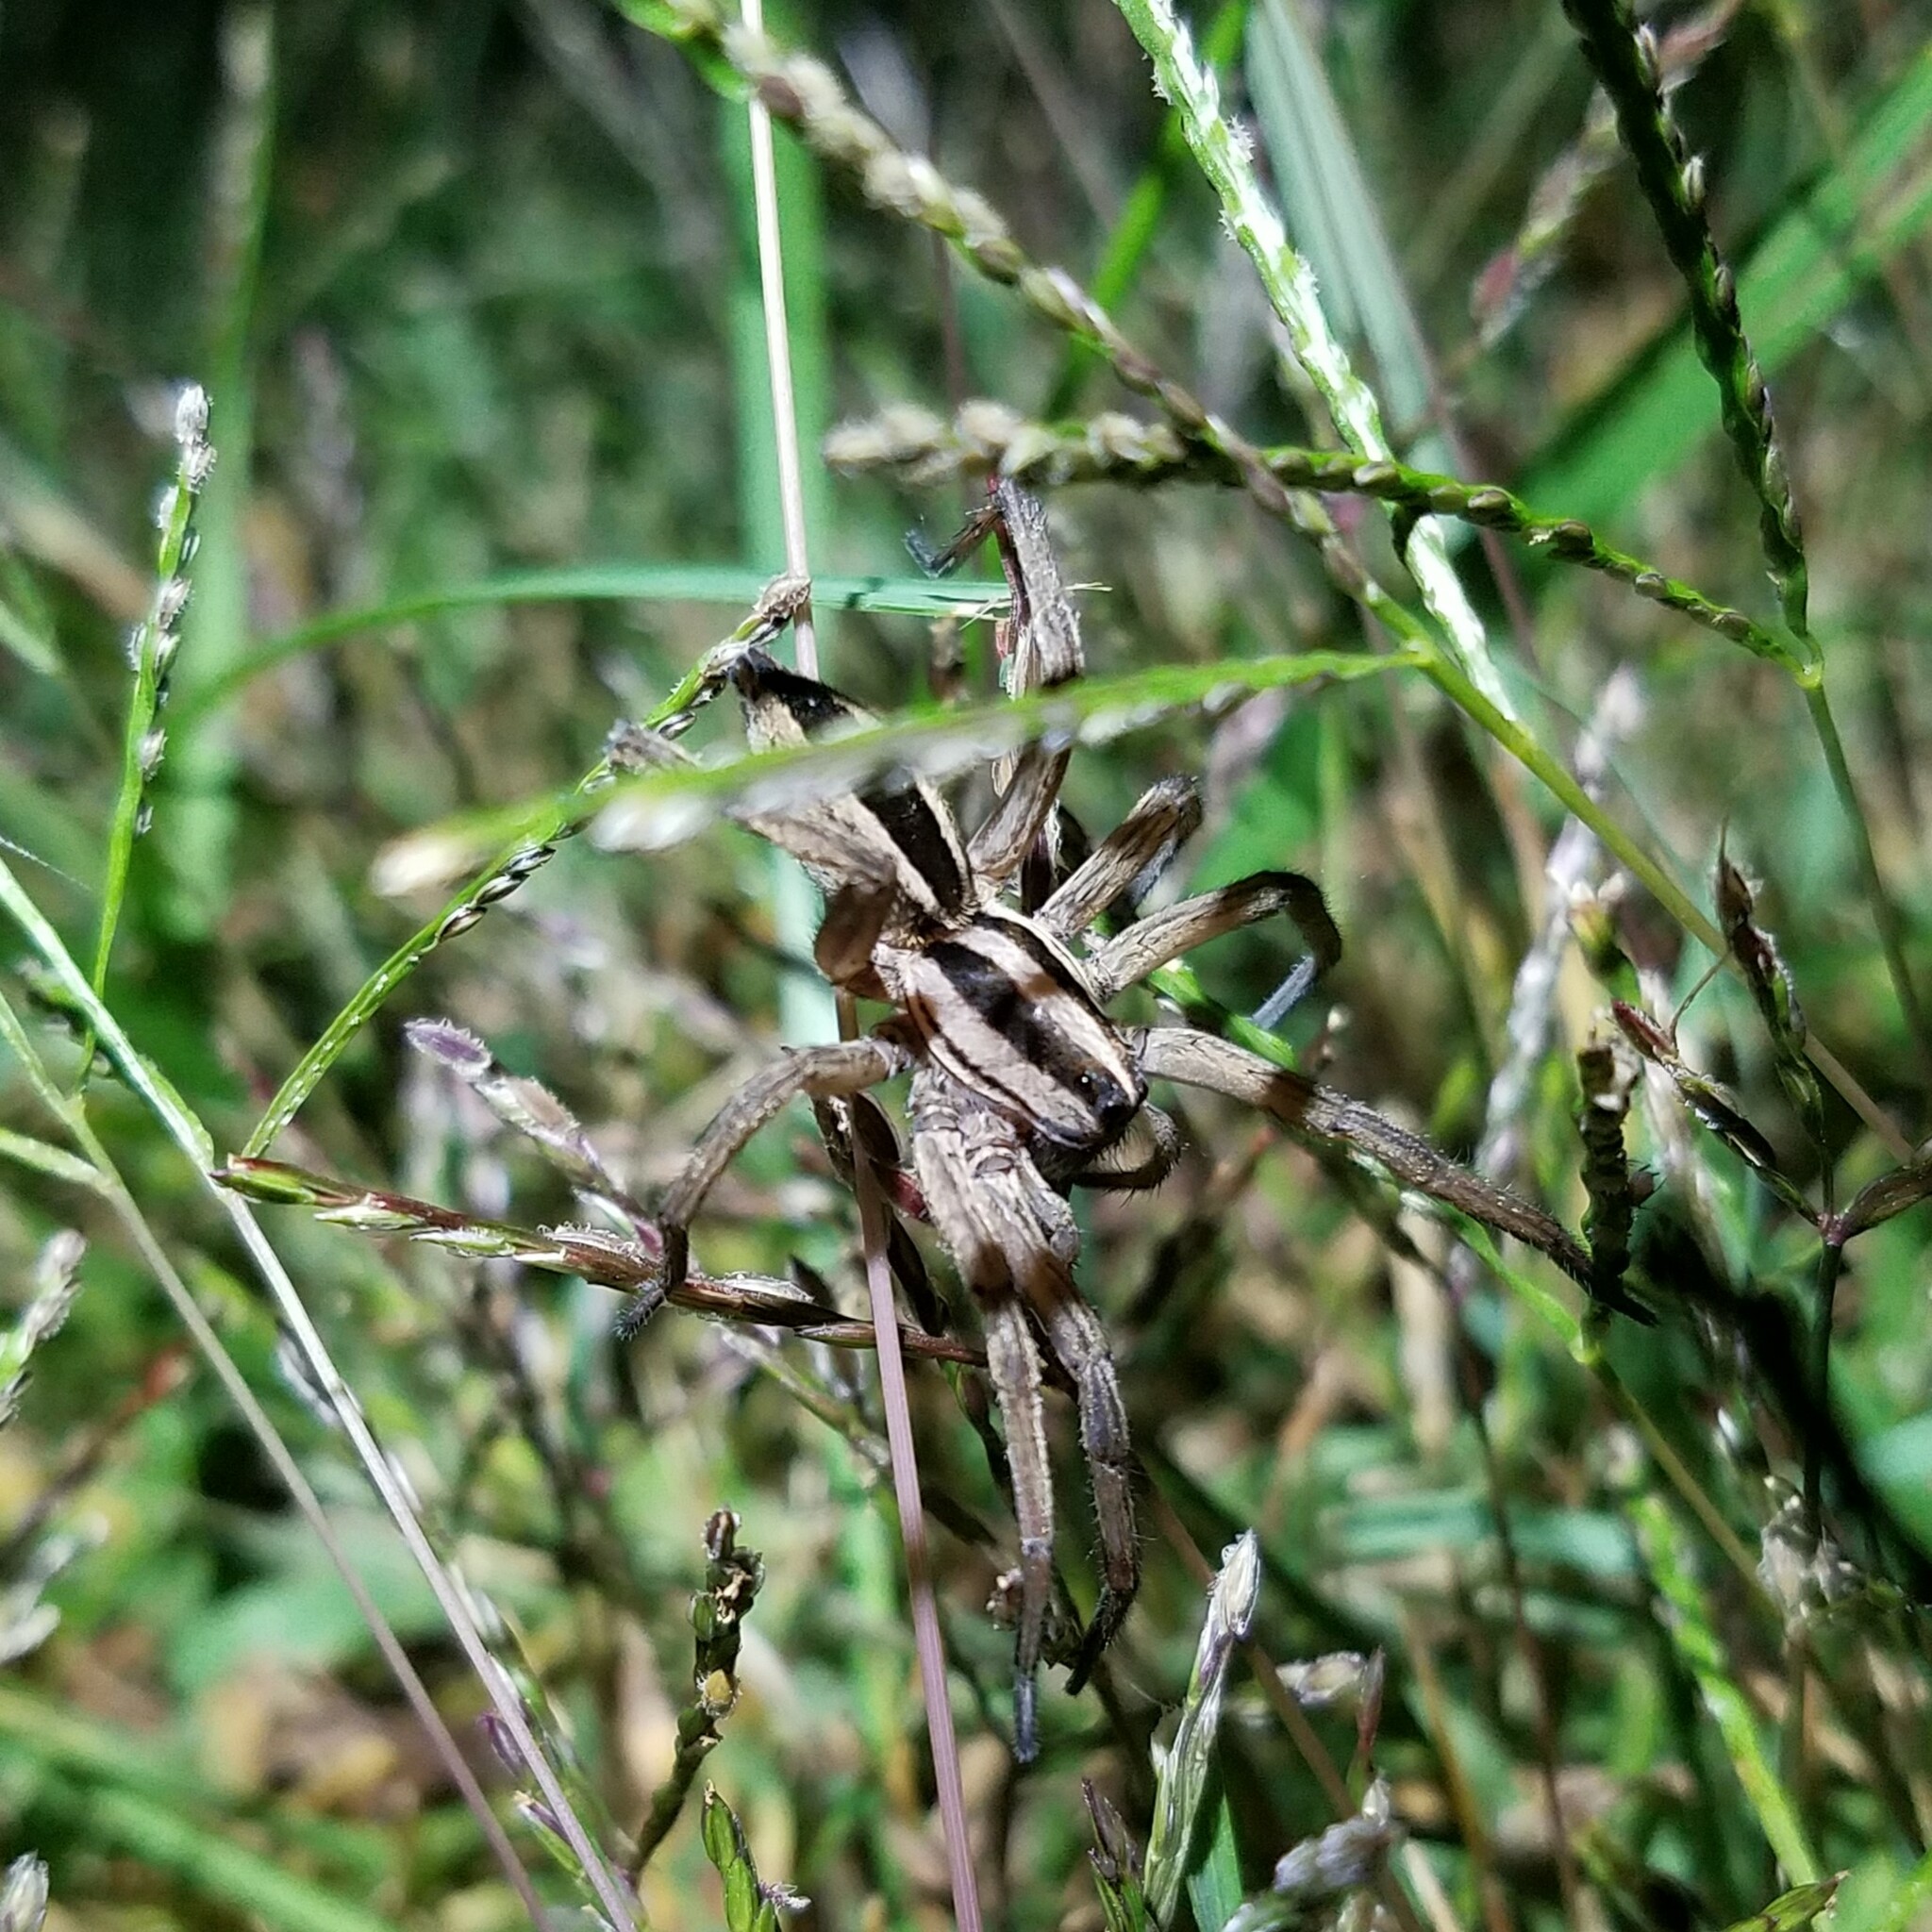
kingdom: Animalia
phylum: Arthropoda
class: Arachnida
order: Araneae
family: Lycosidae
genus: Rabidosa
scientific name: Rabidosa punctulata
